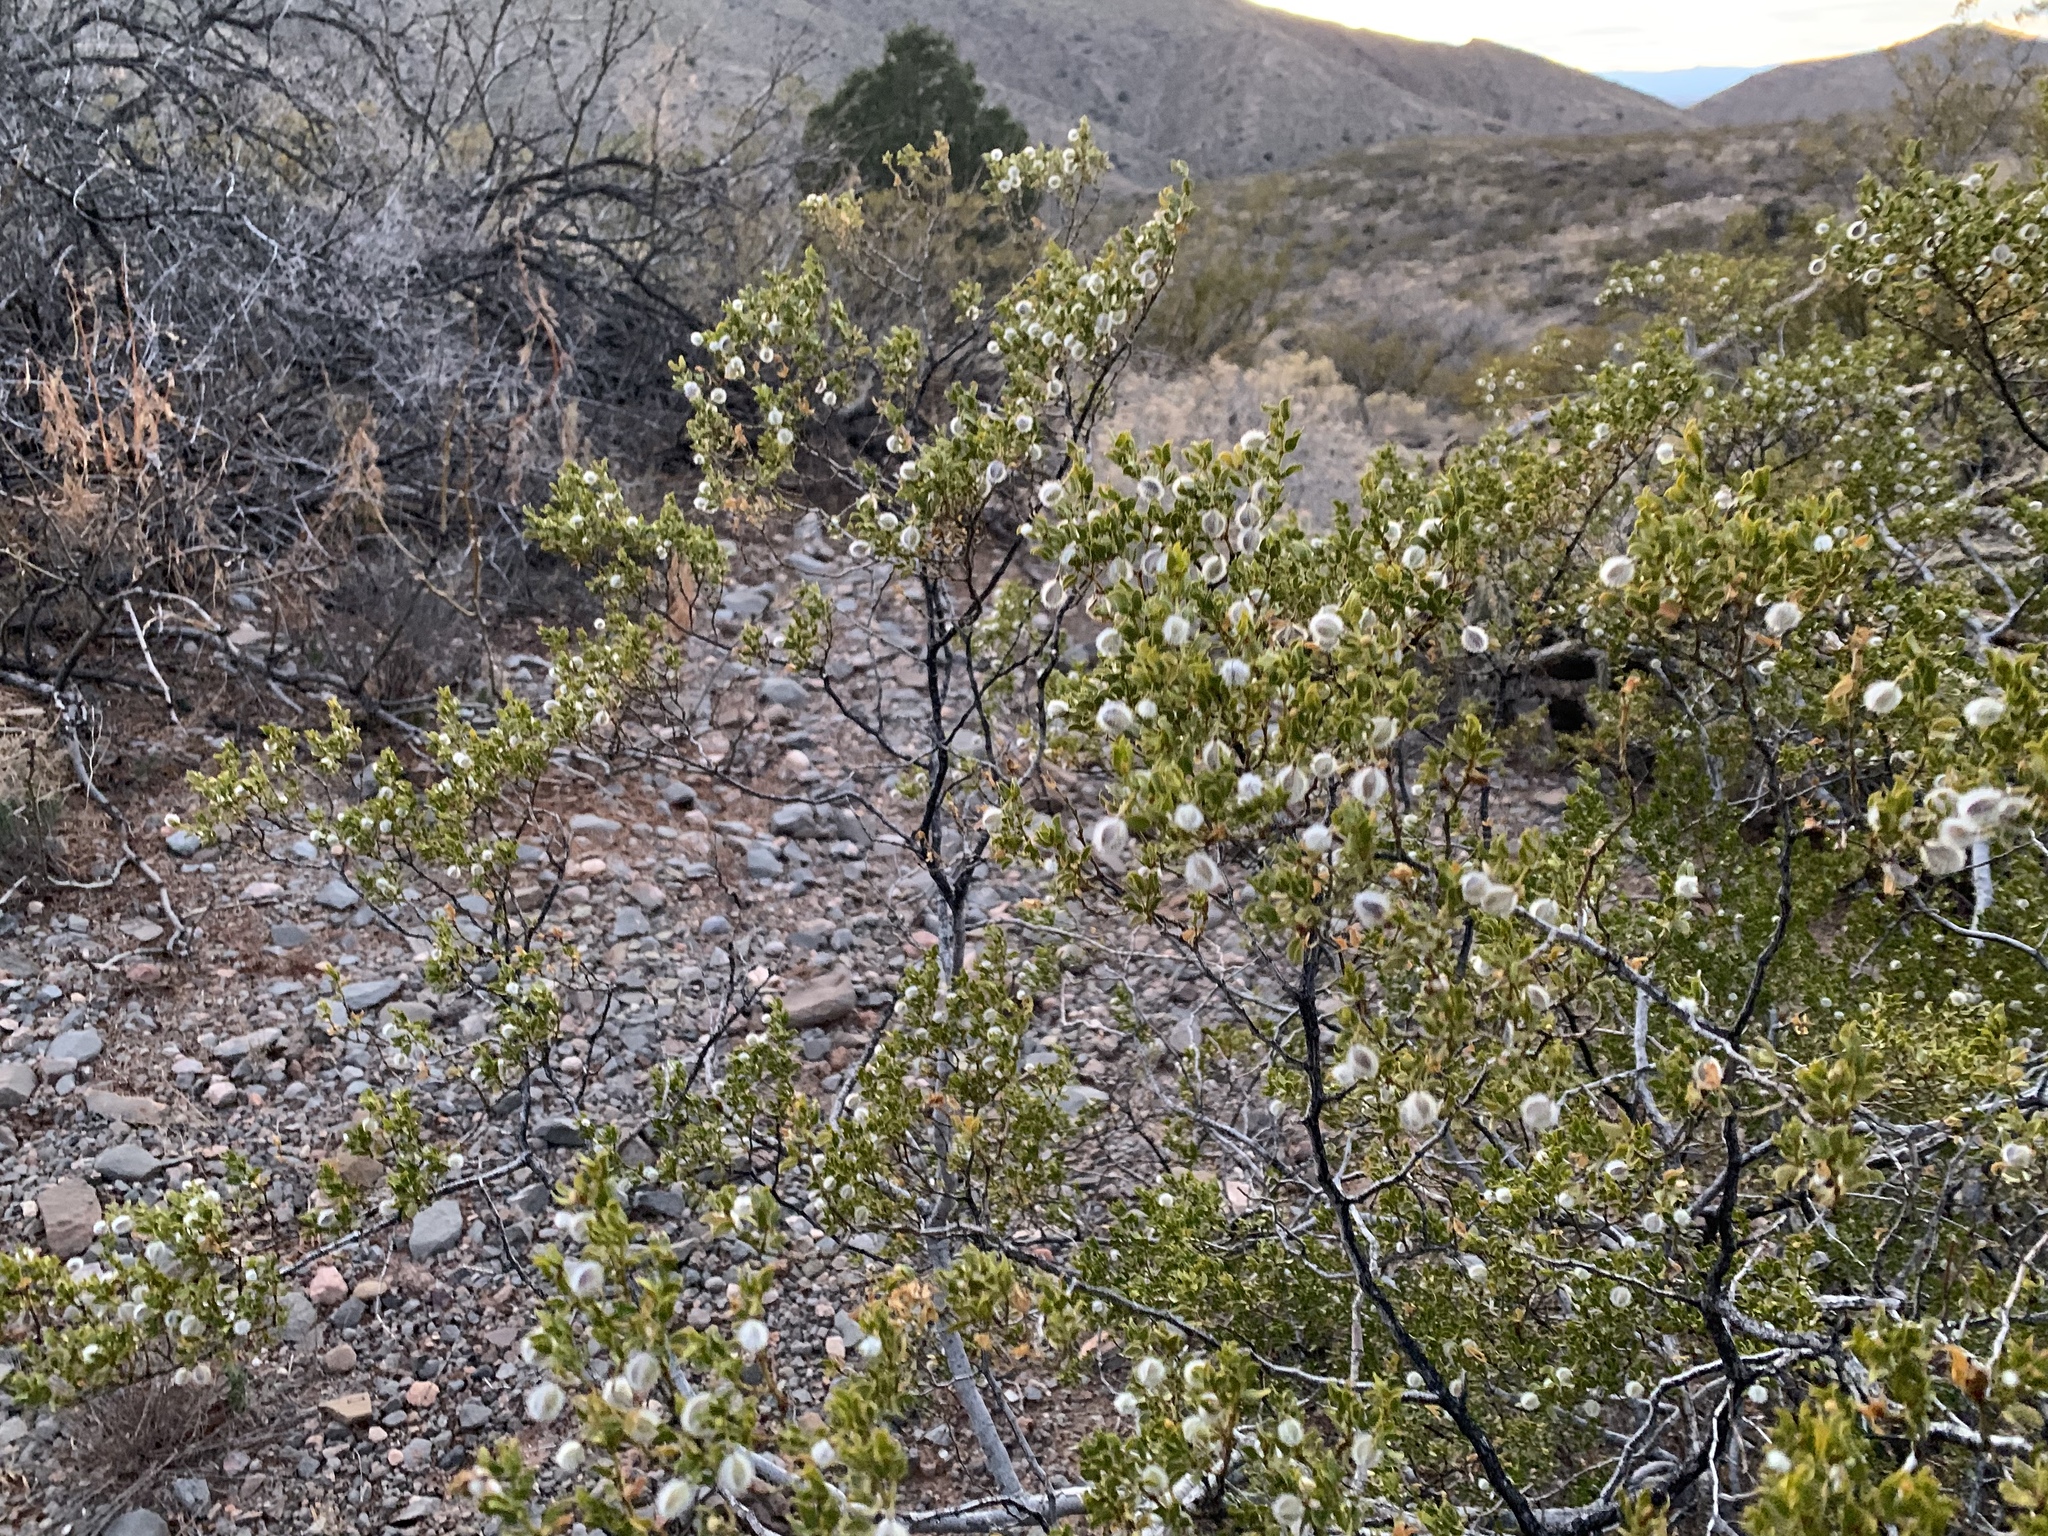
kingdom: Plantae
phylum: Tracheophyta
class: Magnoliopsida
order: Zygophyllales
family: Zygophyllaceae
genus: Larrea
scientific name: Larrea tridentata
